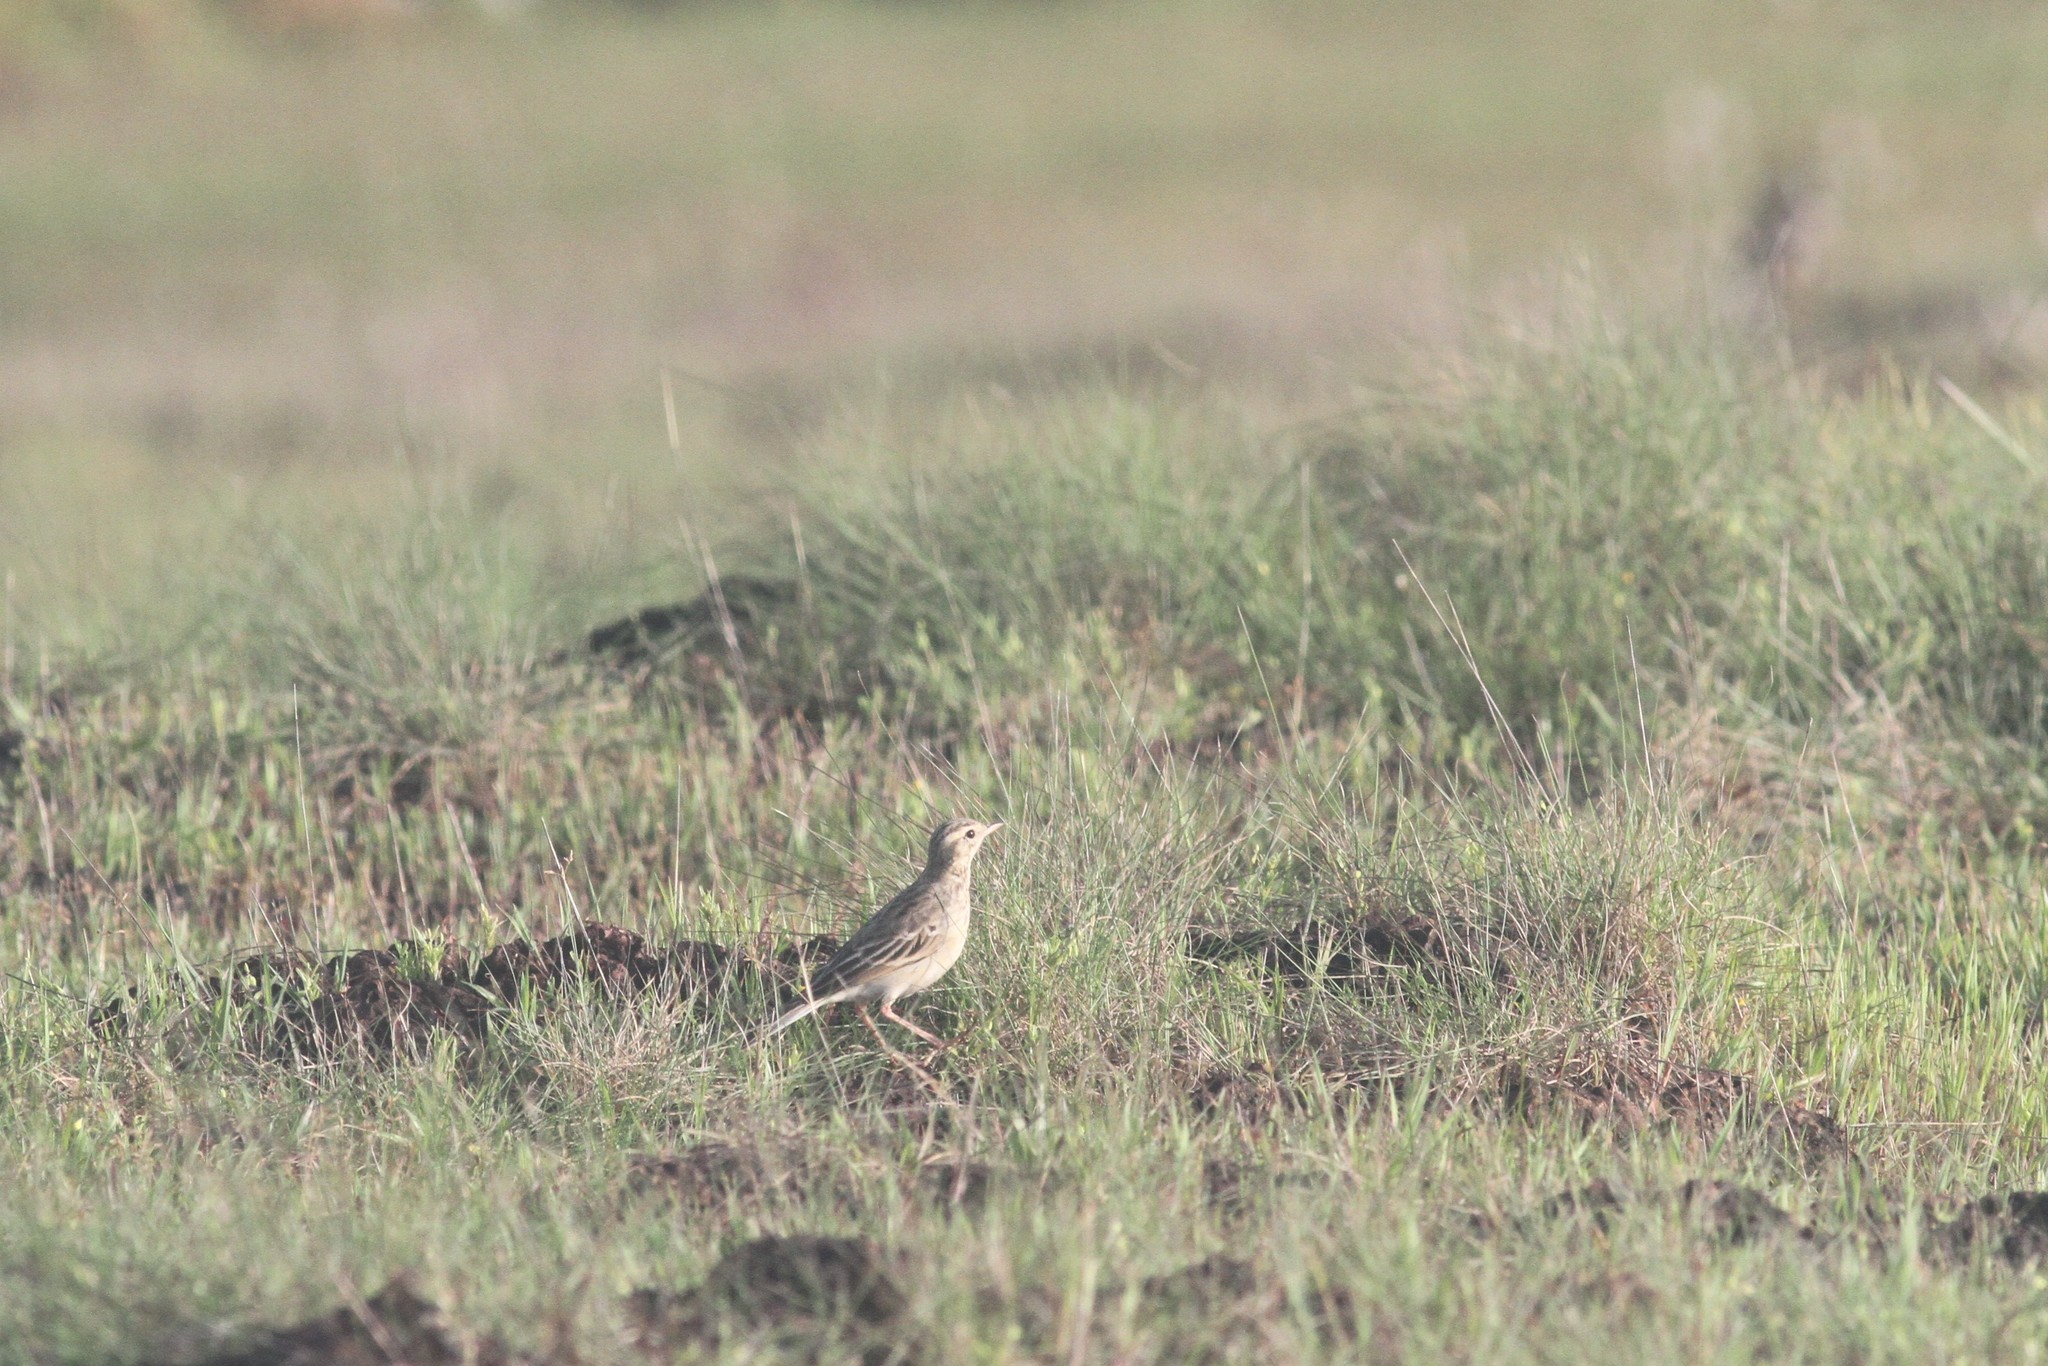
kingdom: Animalia
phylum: Chordata
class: Aves
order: Passeriformes
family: Motacillidae
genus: Anthus
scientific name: Anthus rufulus
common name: Paddyfield pipit
